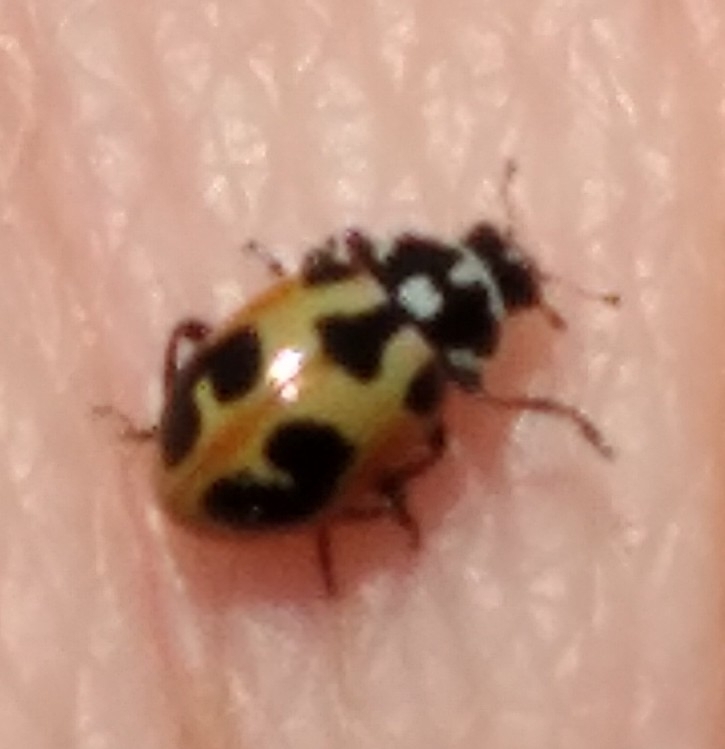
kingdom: Animalia
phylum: Arthropoda
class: Insecta
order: Coleoptera
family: Coccinellidae
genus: Hippodamia
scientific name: Hippodamia parenthesis
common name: Parenthesis lady beetle
